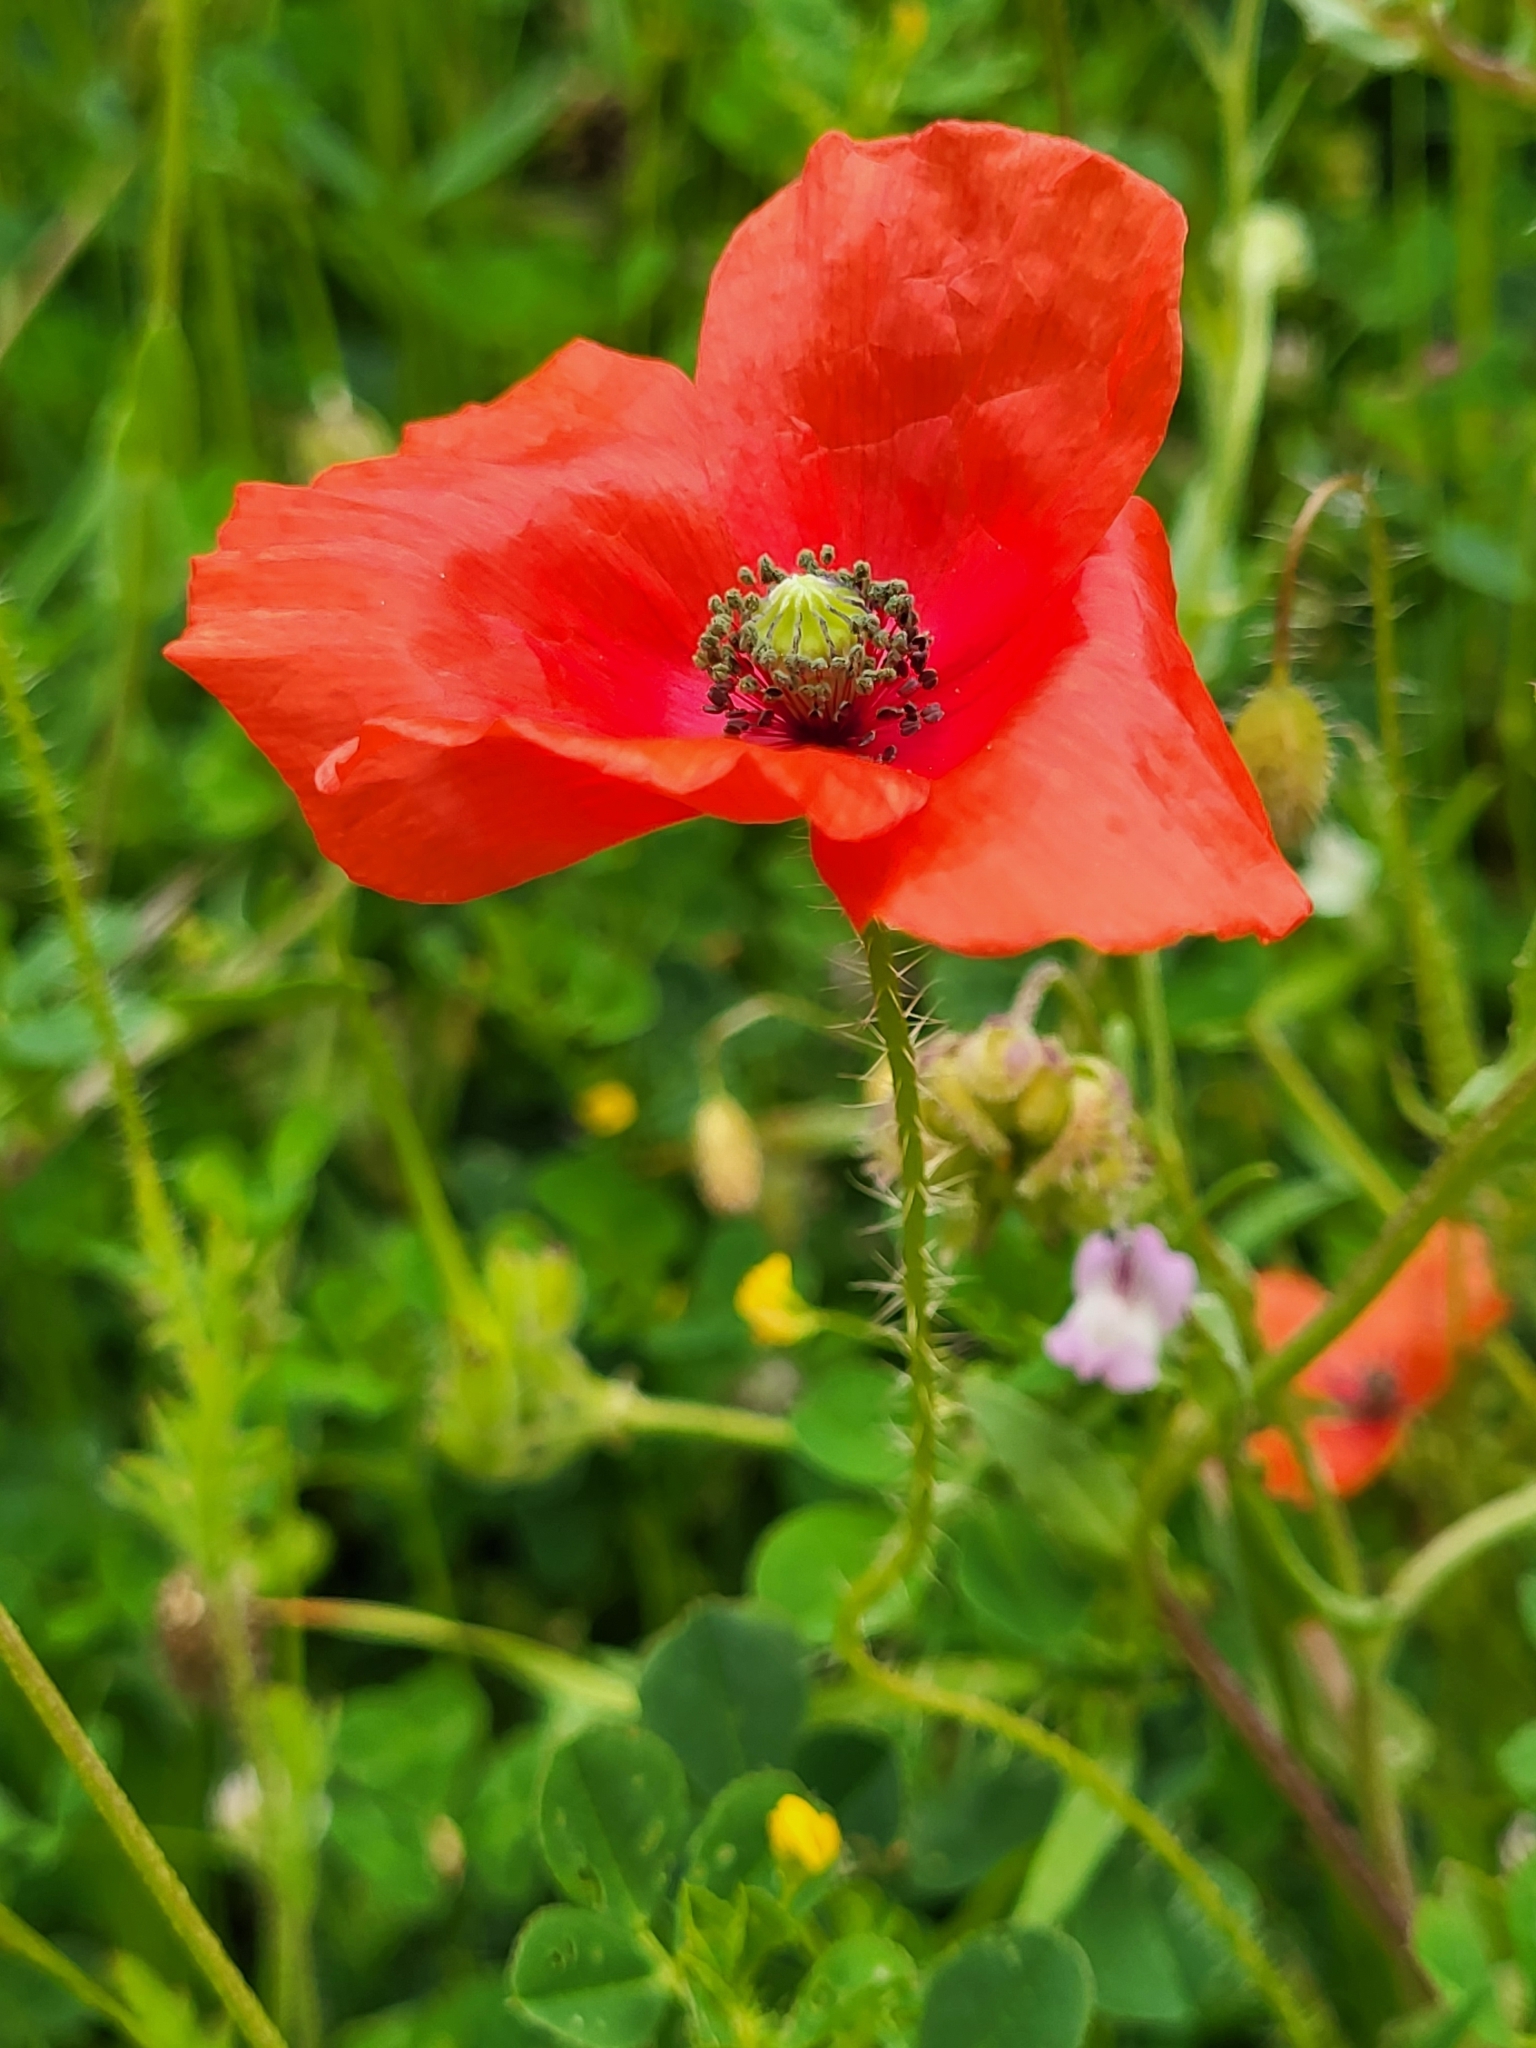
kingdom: Plantae
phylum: Tracheophyta
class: Magnoliopsida
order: Ranunculales
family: Papaveraceae
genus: Papaver
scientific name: Papaver rhoeas
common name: Corn poppy
